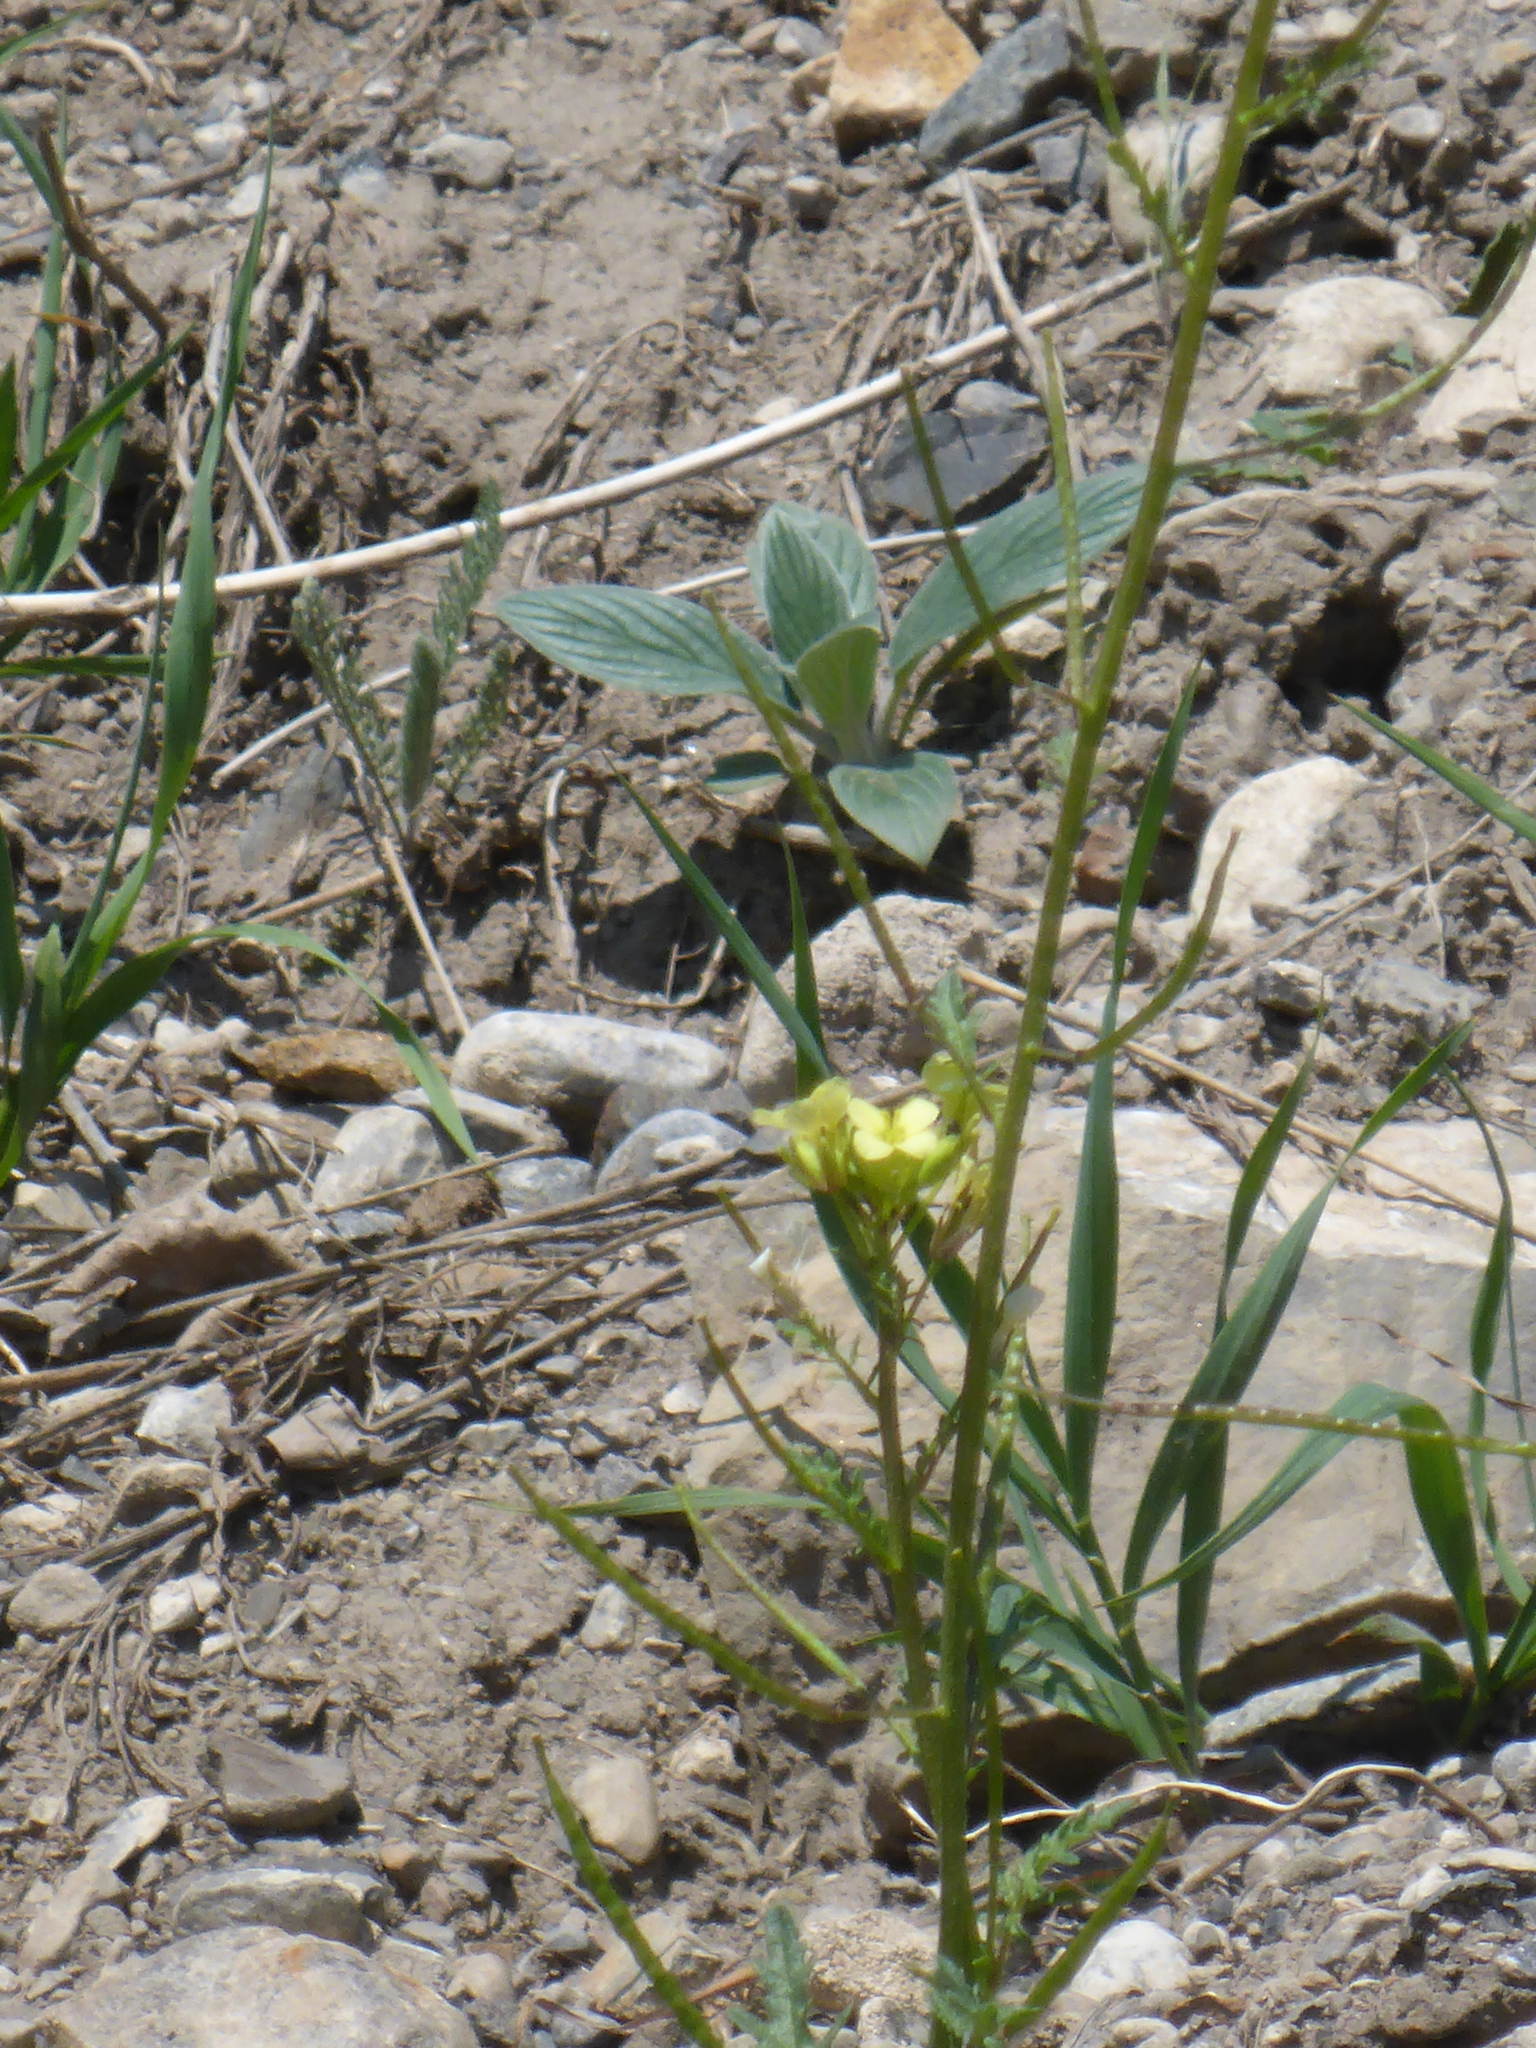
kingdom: Plantae
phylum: Tracheophyta
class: Magnoliopsida
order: Brassicales
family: Brassicaceae
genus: Erucastrum
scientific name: Erucastrum gallicum
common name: Hairy rocket
